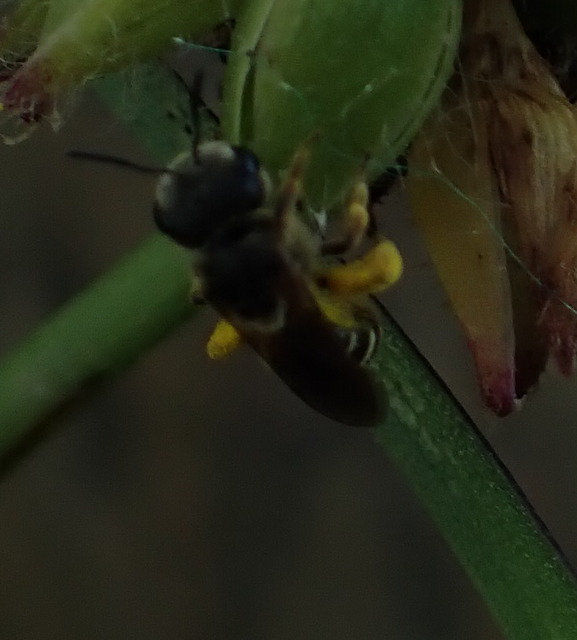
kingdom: Animalia
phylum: Arthropoda
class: Insecta
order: Hymenoptera
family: Halictidae
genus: Halictus
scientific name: Halictus poeyi
